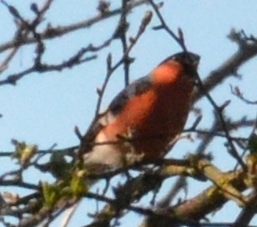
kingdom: Animalia
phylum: Chordata
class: Aves
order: Passeriformes
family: Fringillidae
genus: Pyrrhula
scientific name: Pyrrhula pyrrhula
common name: Eurasian bullfinch
